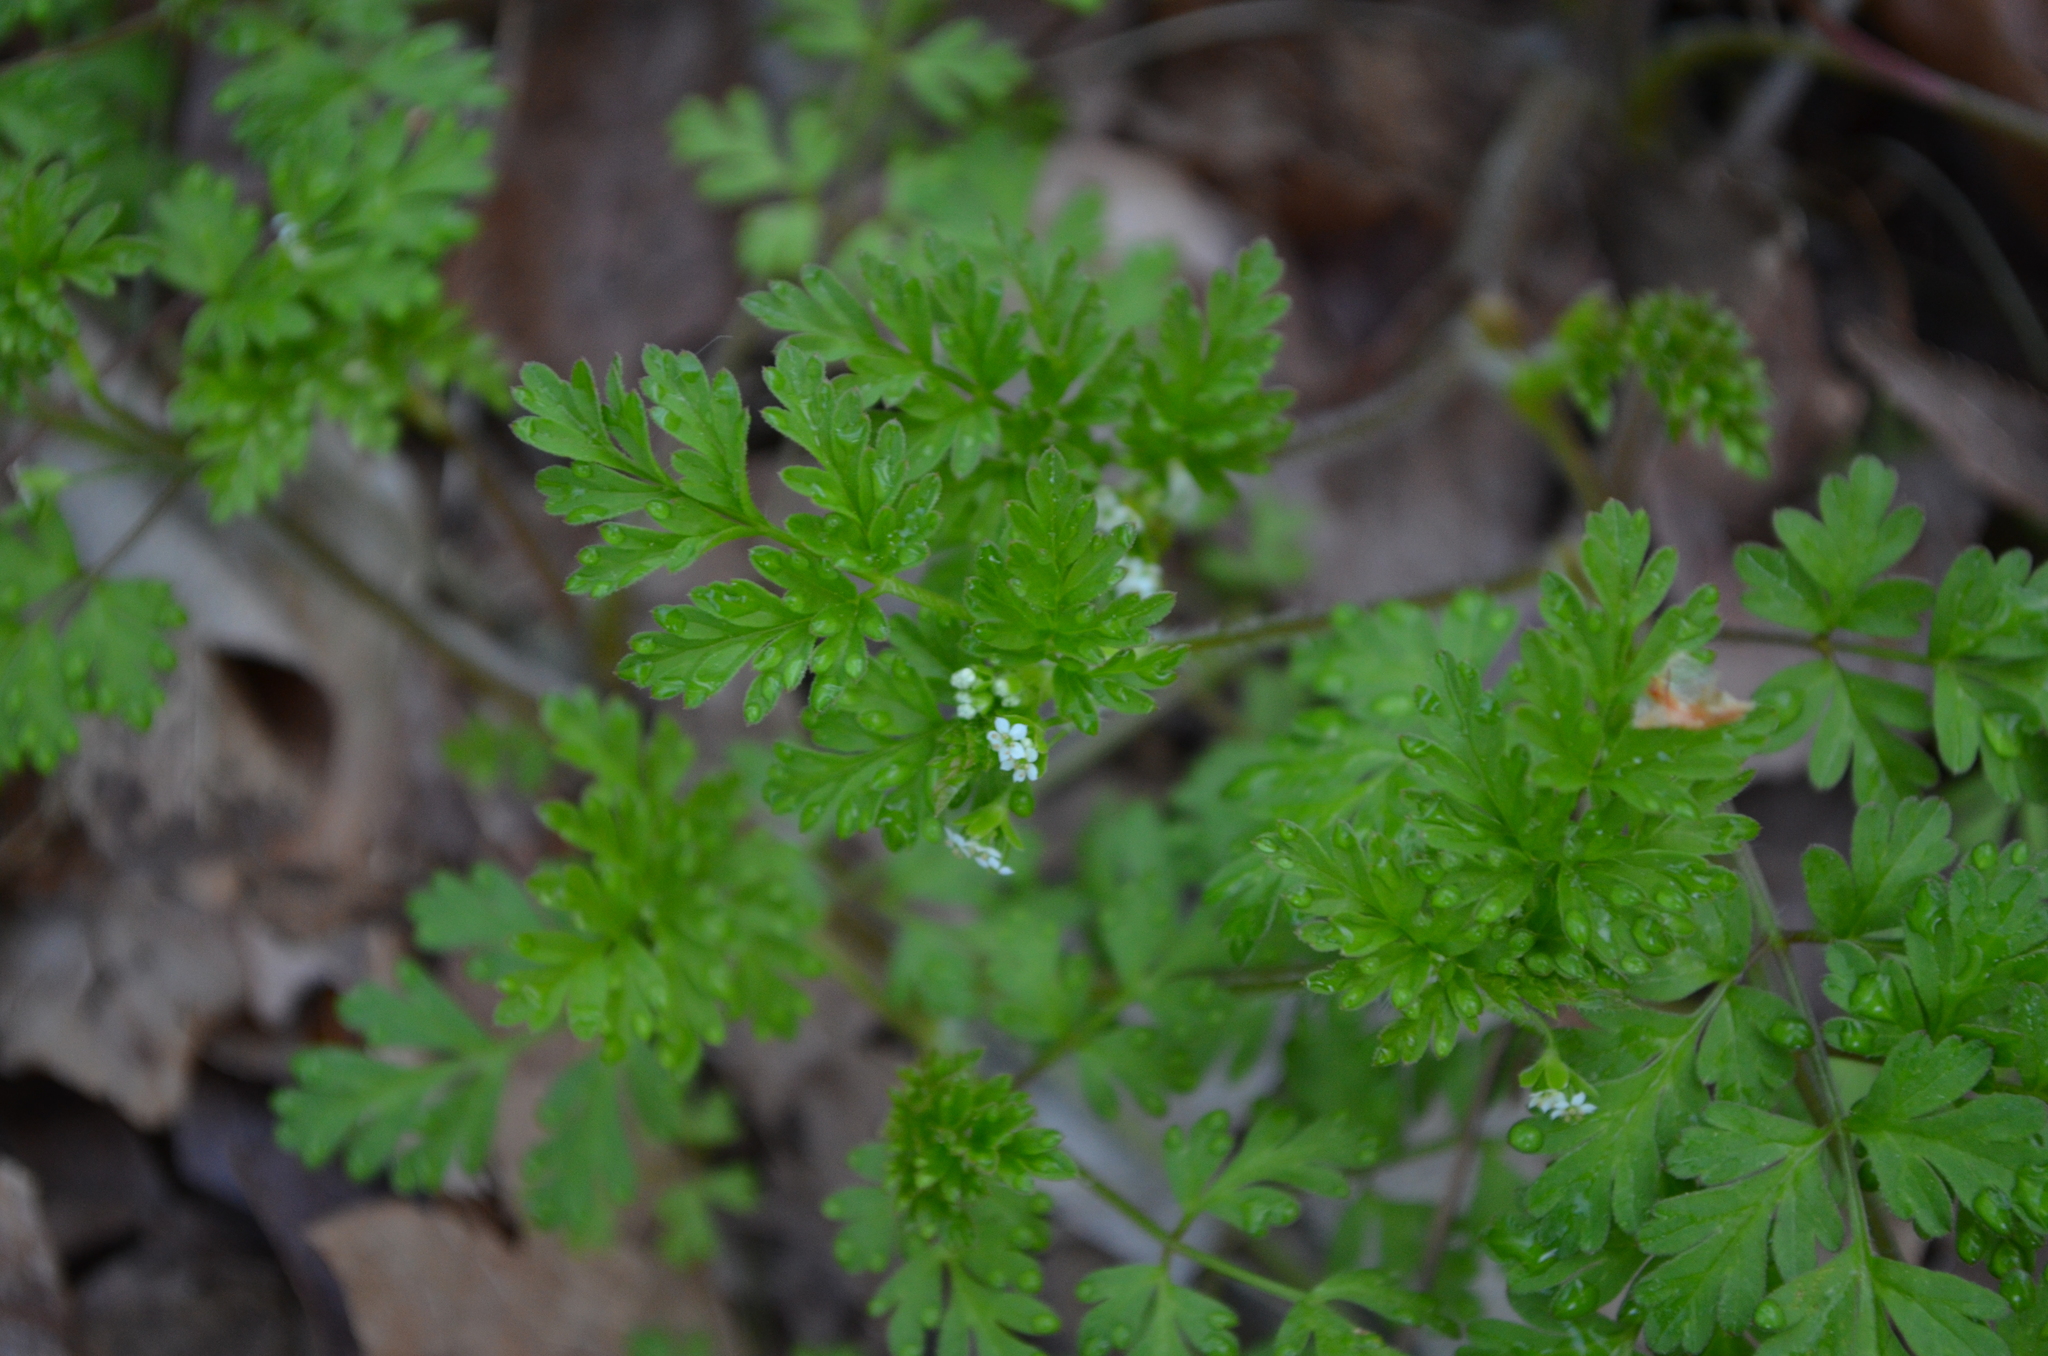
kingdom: Plantae
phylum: Tracheophyta
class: Magnoliopsida
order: Apiales
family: Apiaceae
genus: Chaerophyllum
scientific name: Chaerophyllum tainturieri
